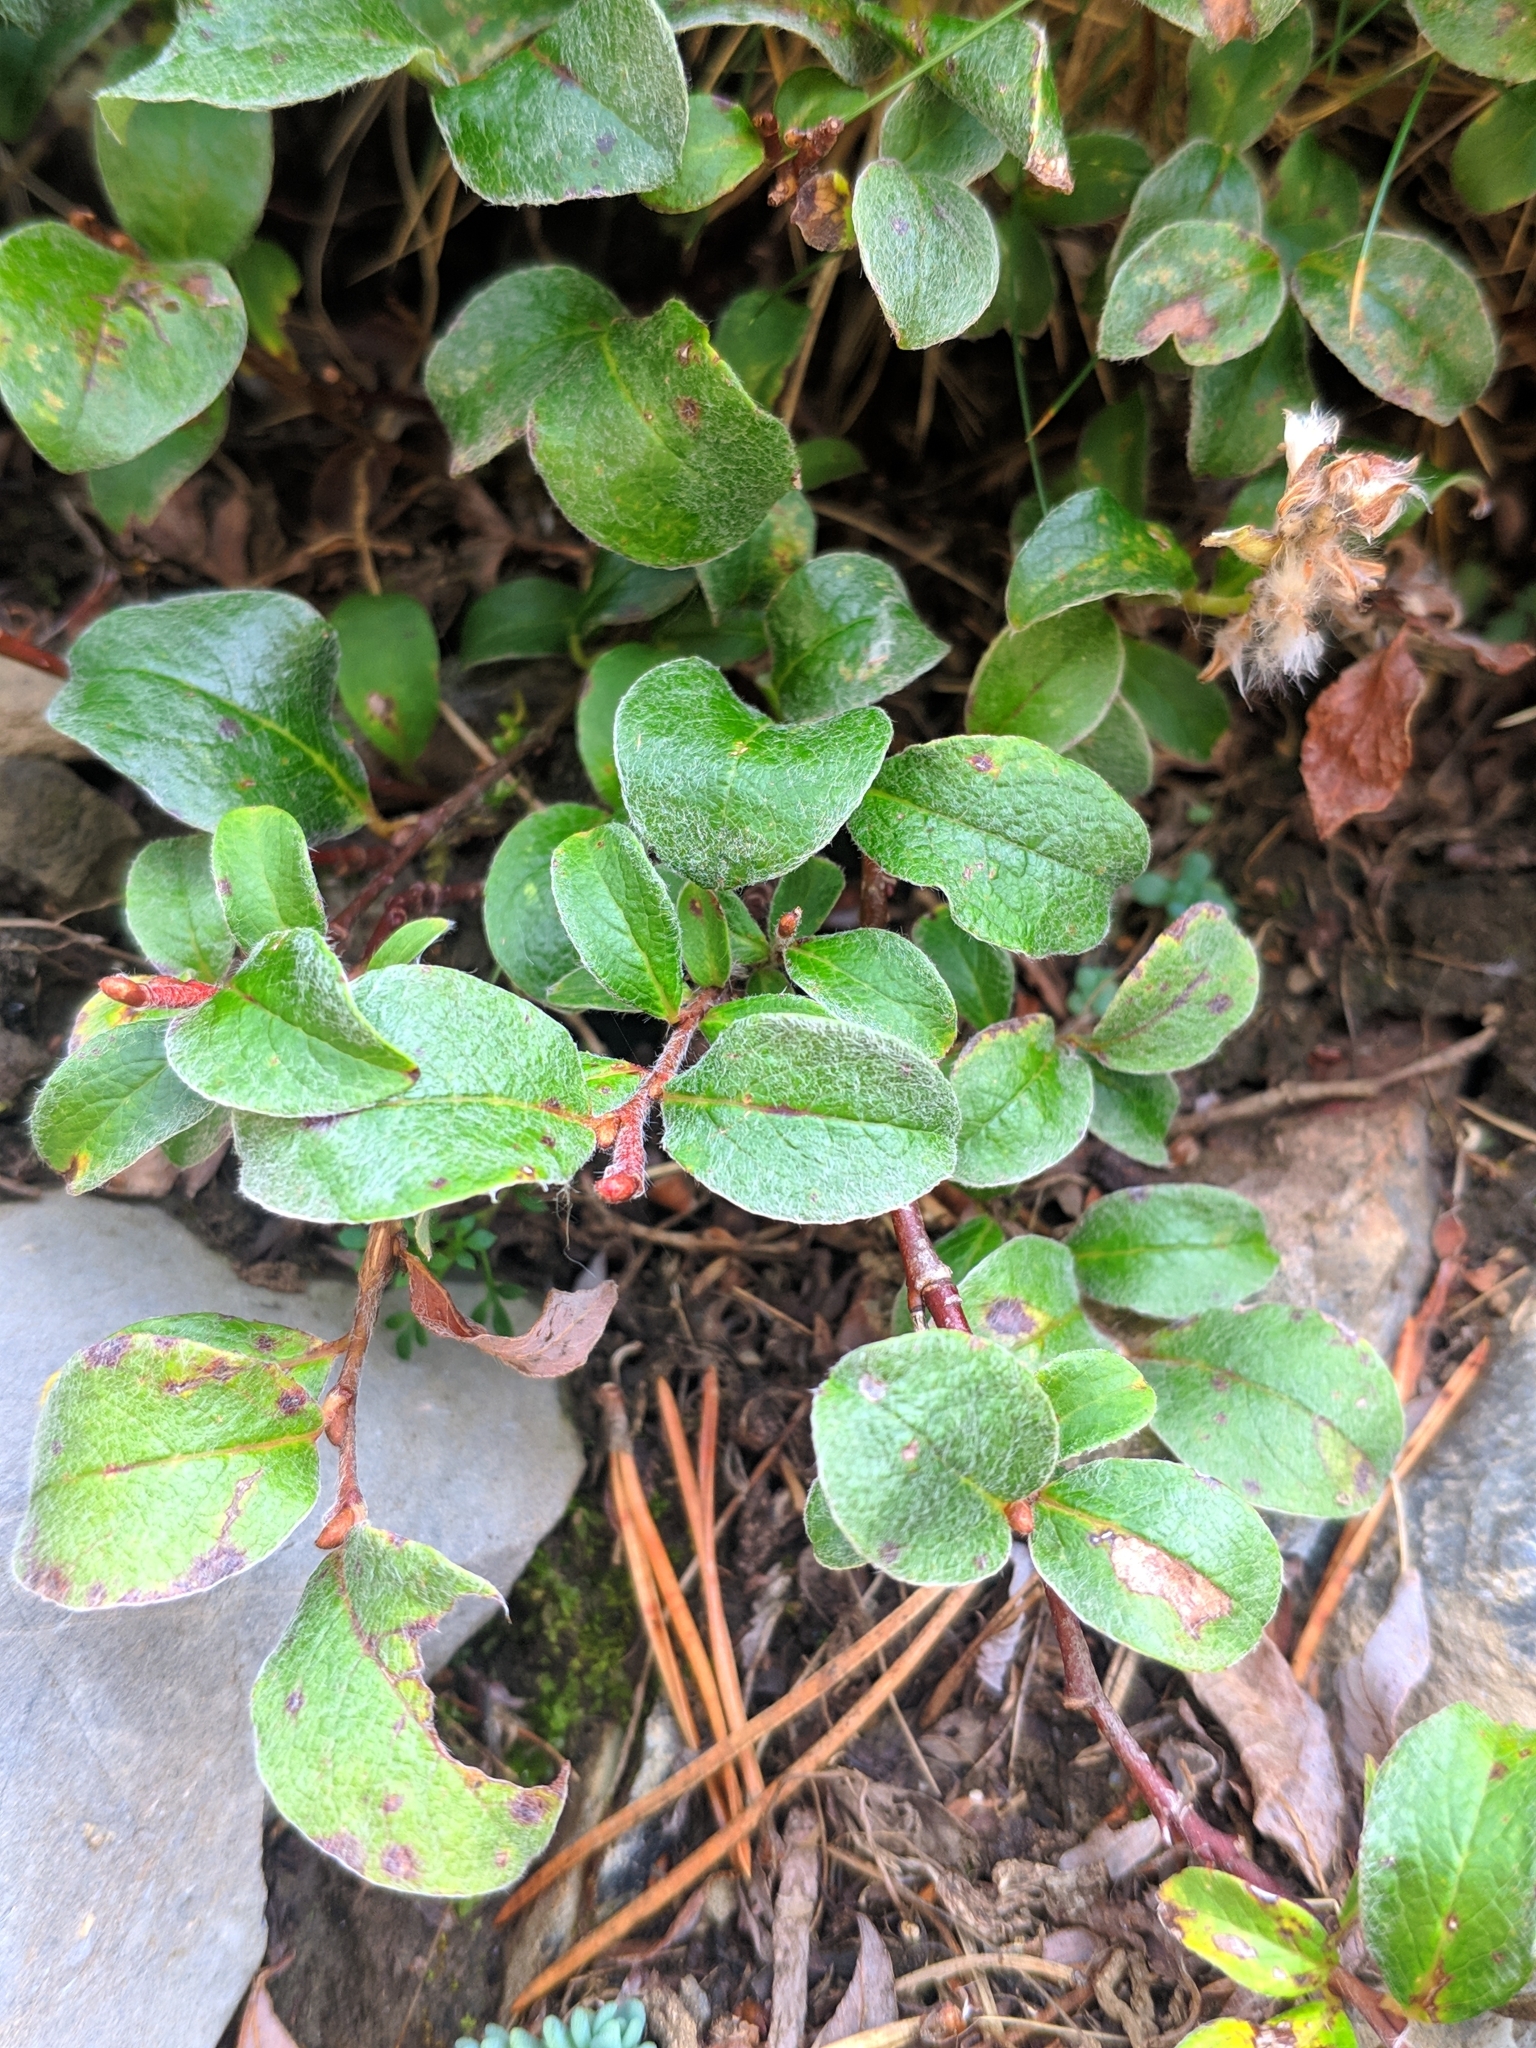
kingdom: Plantae
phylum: Tracheophyta
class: Magnoliopsida
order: Malpighiales
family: Salicaceae
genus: Salix
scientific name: Salix pyrenaica
